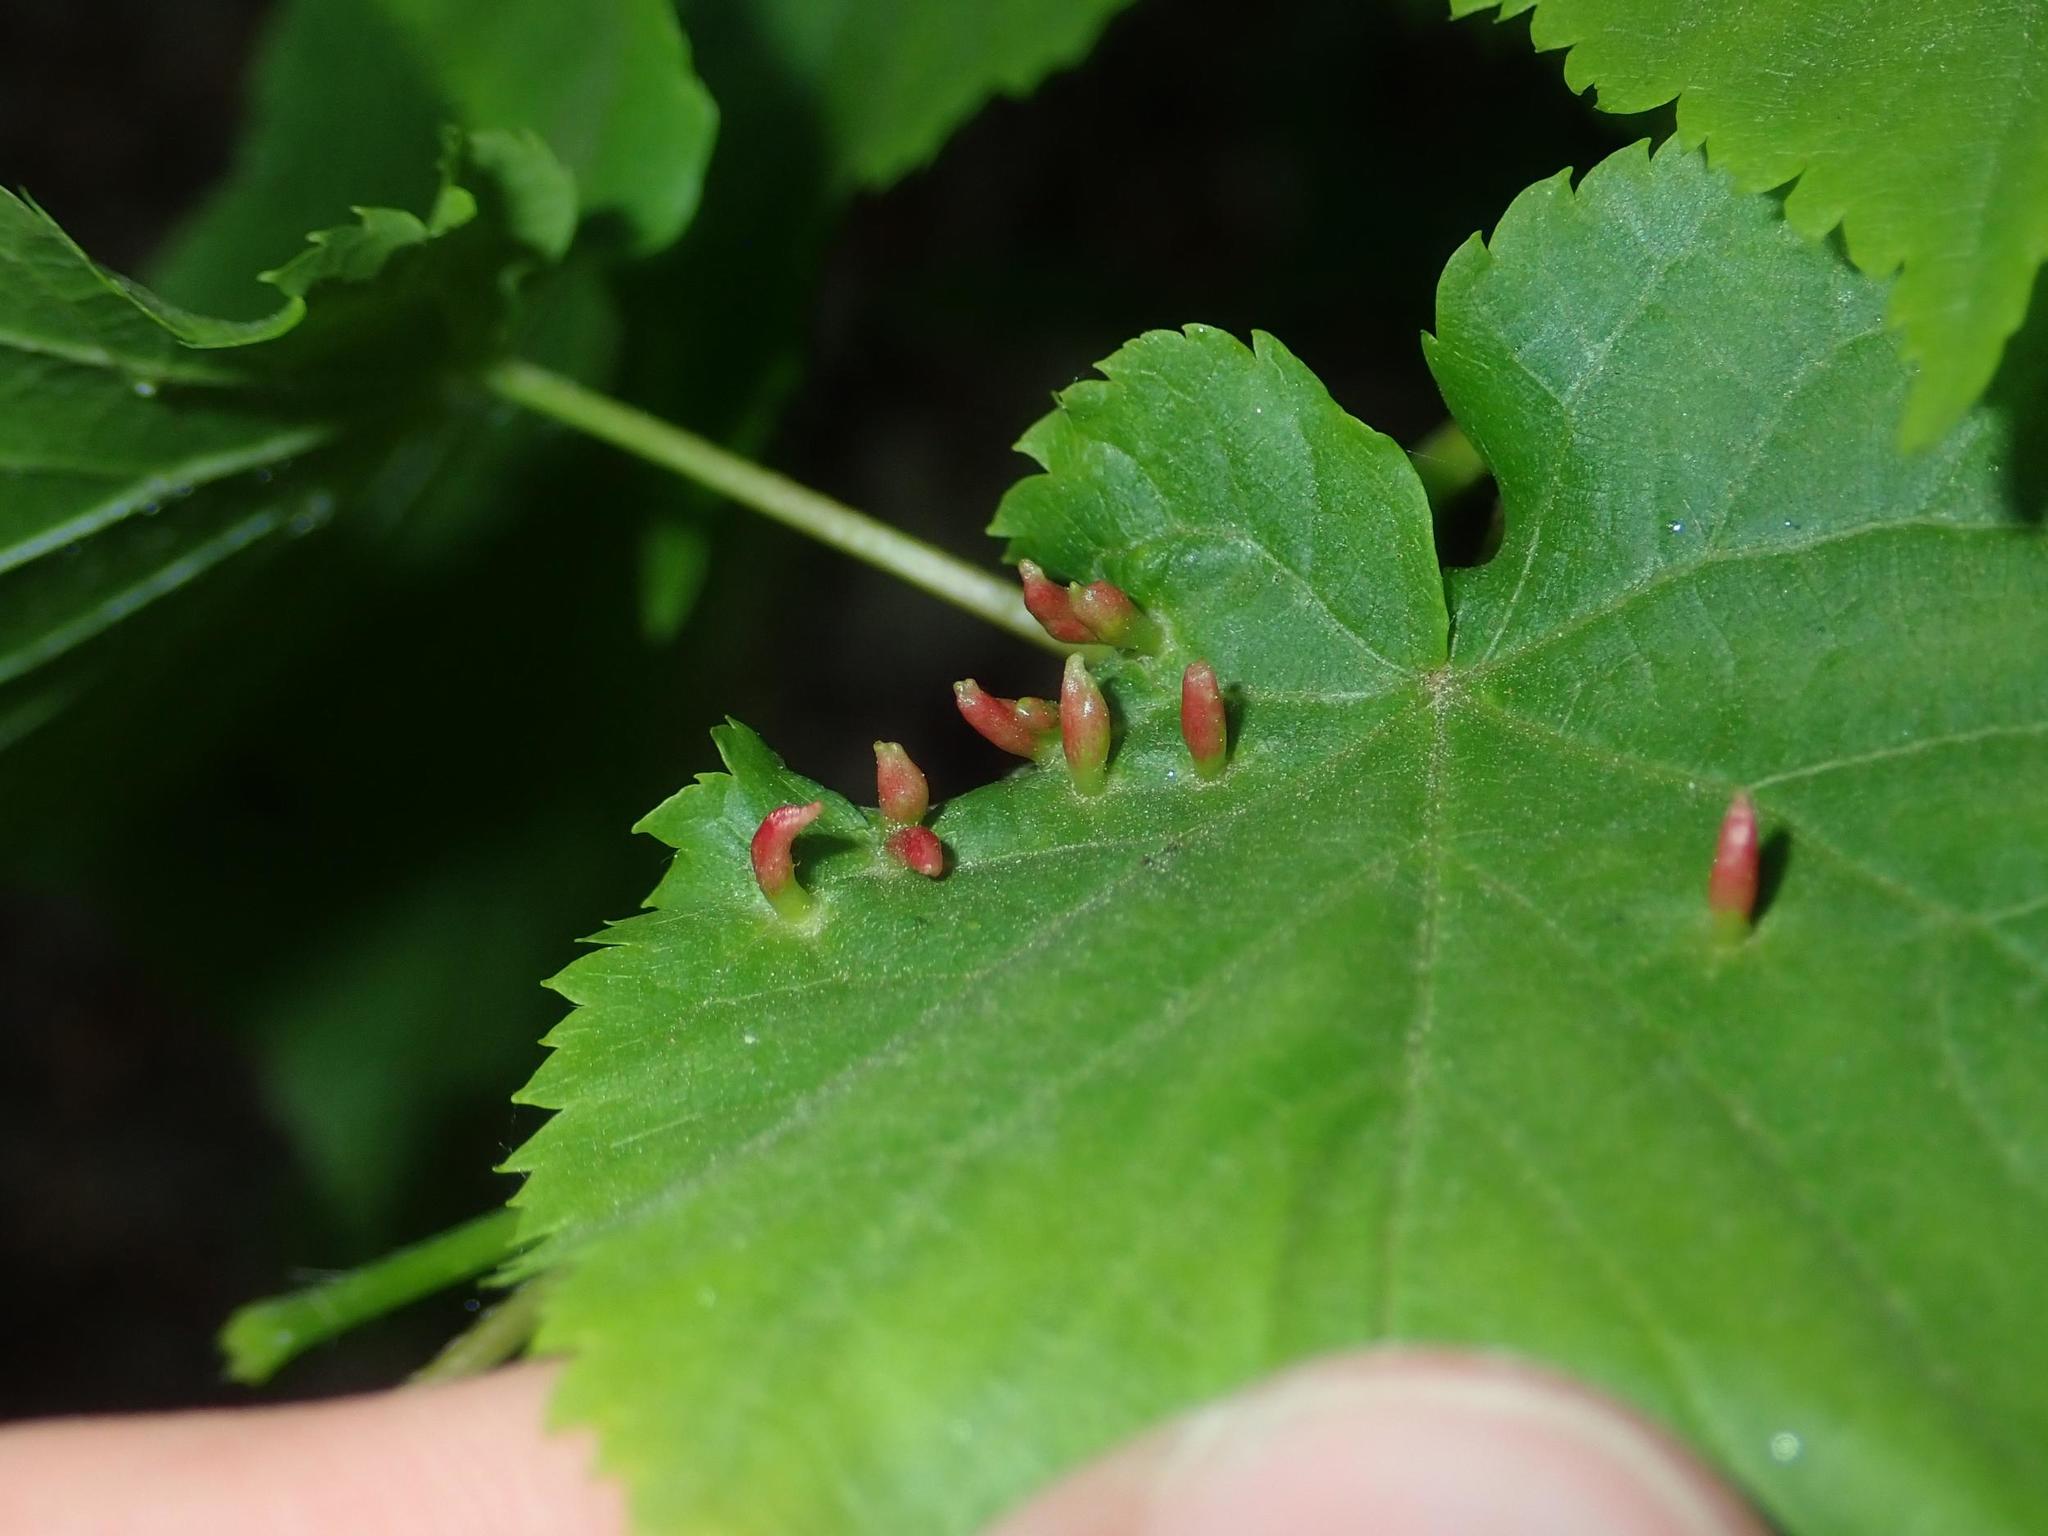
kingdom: Animalia
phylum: Arthropoda
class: Arachnida
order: Trombidiformes
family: Eriophyidae
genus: Eriophyes
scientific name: Eriophyes tiliae
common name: Red nail gall mite
